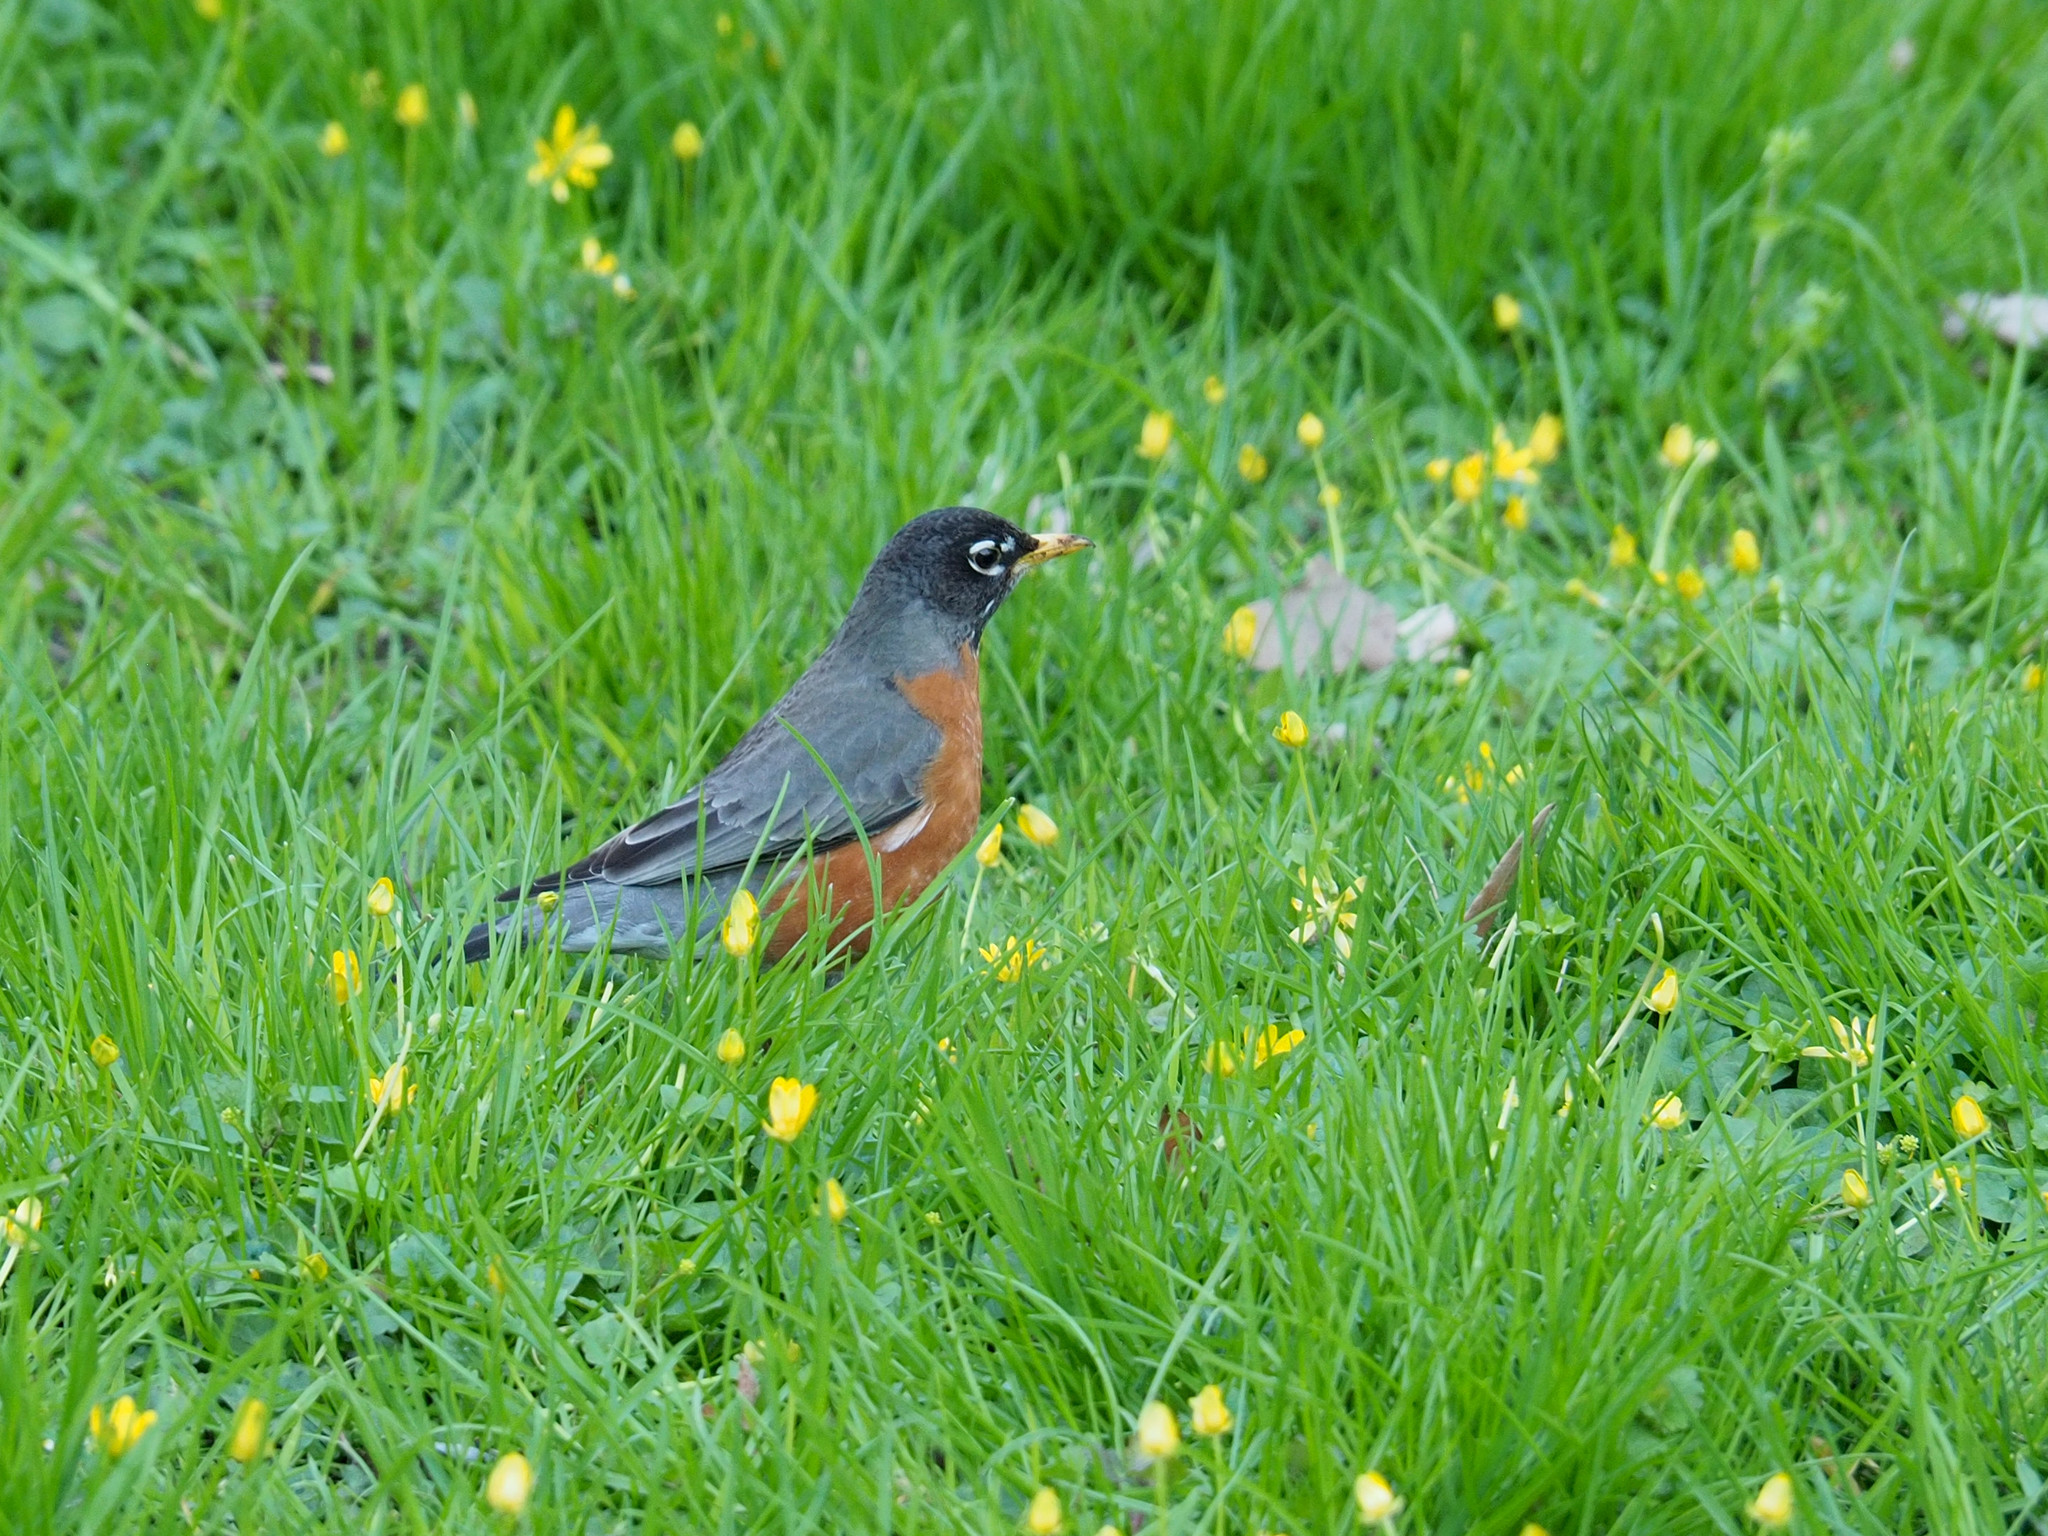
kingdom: Animalia
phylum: Chordata
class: Aves
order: Passeriformes
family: Turdidae
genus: Turdus
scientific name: Turdus migratorius
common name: American robin
